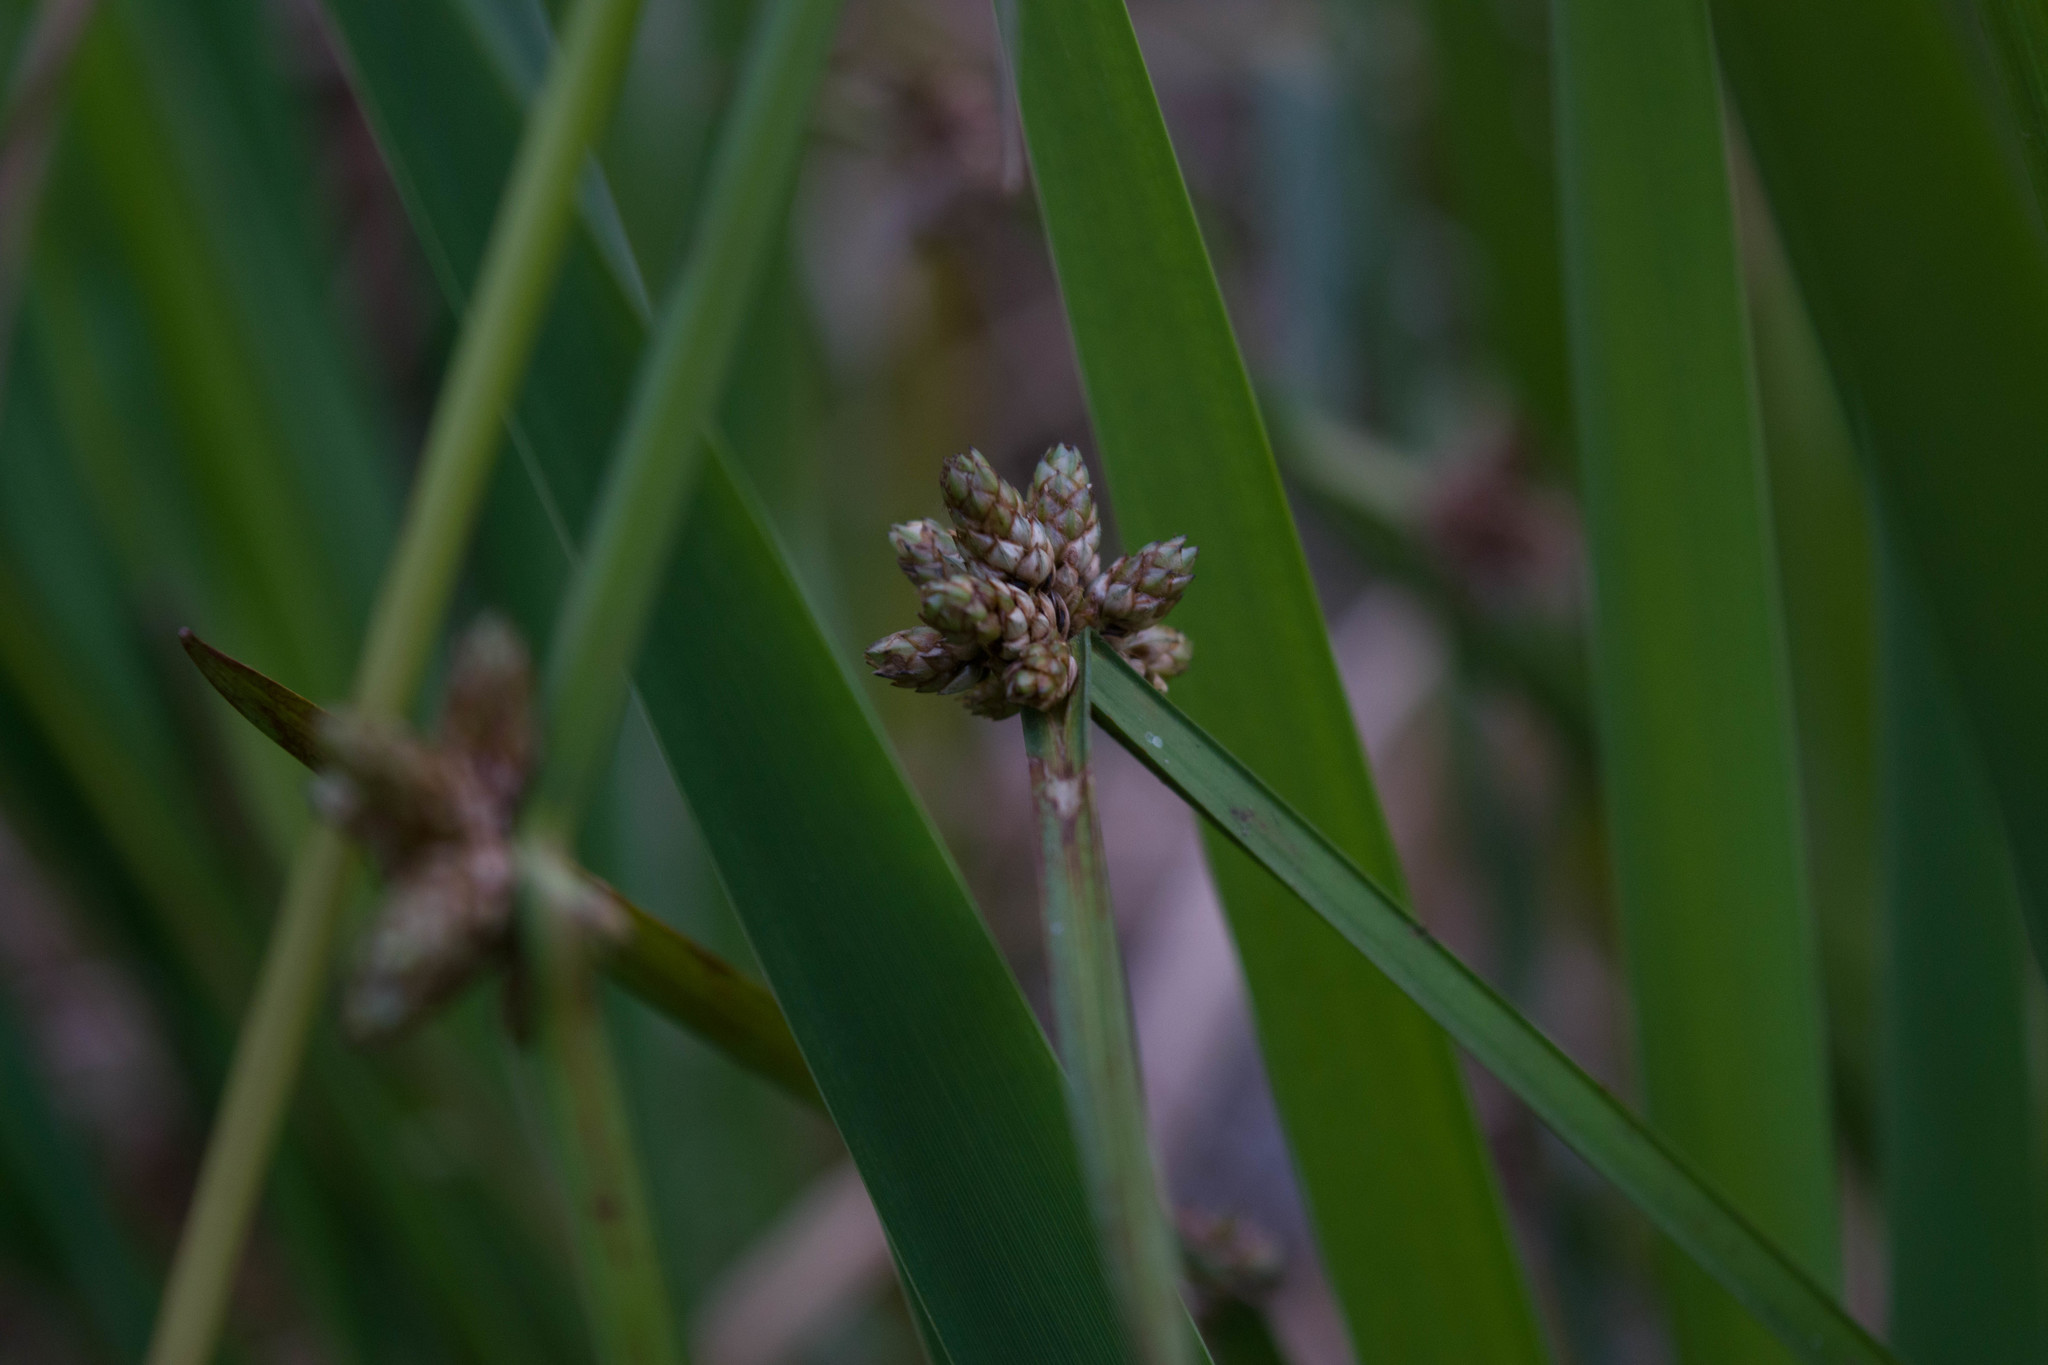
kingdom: Plantae
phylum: Tracheophyta
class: Liliopsida
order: Poales
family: Cyperaceae
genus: Schoenoplectiella
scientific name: Schoenoplectiella mucronata
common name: Bog bulrush
